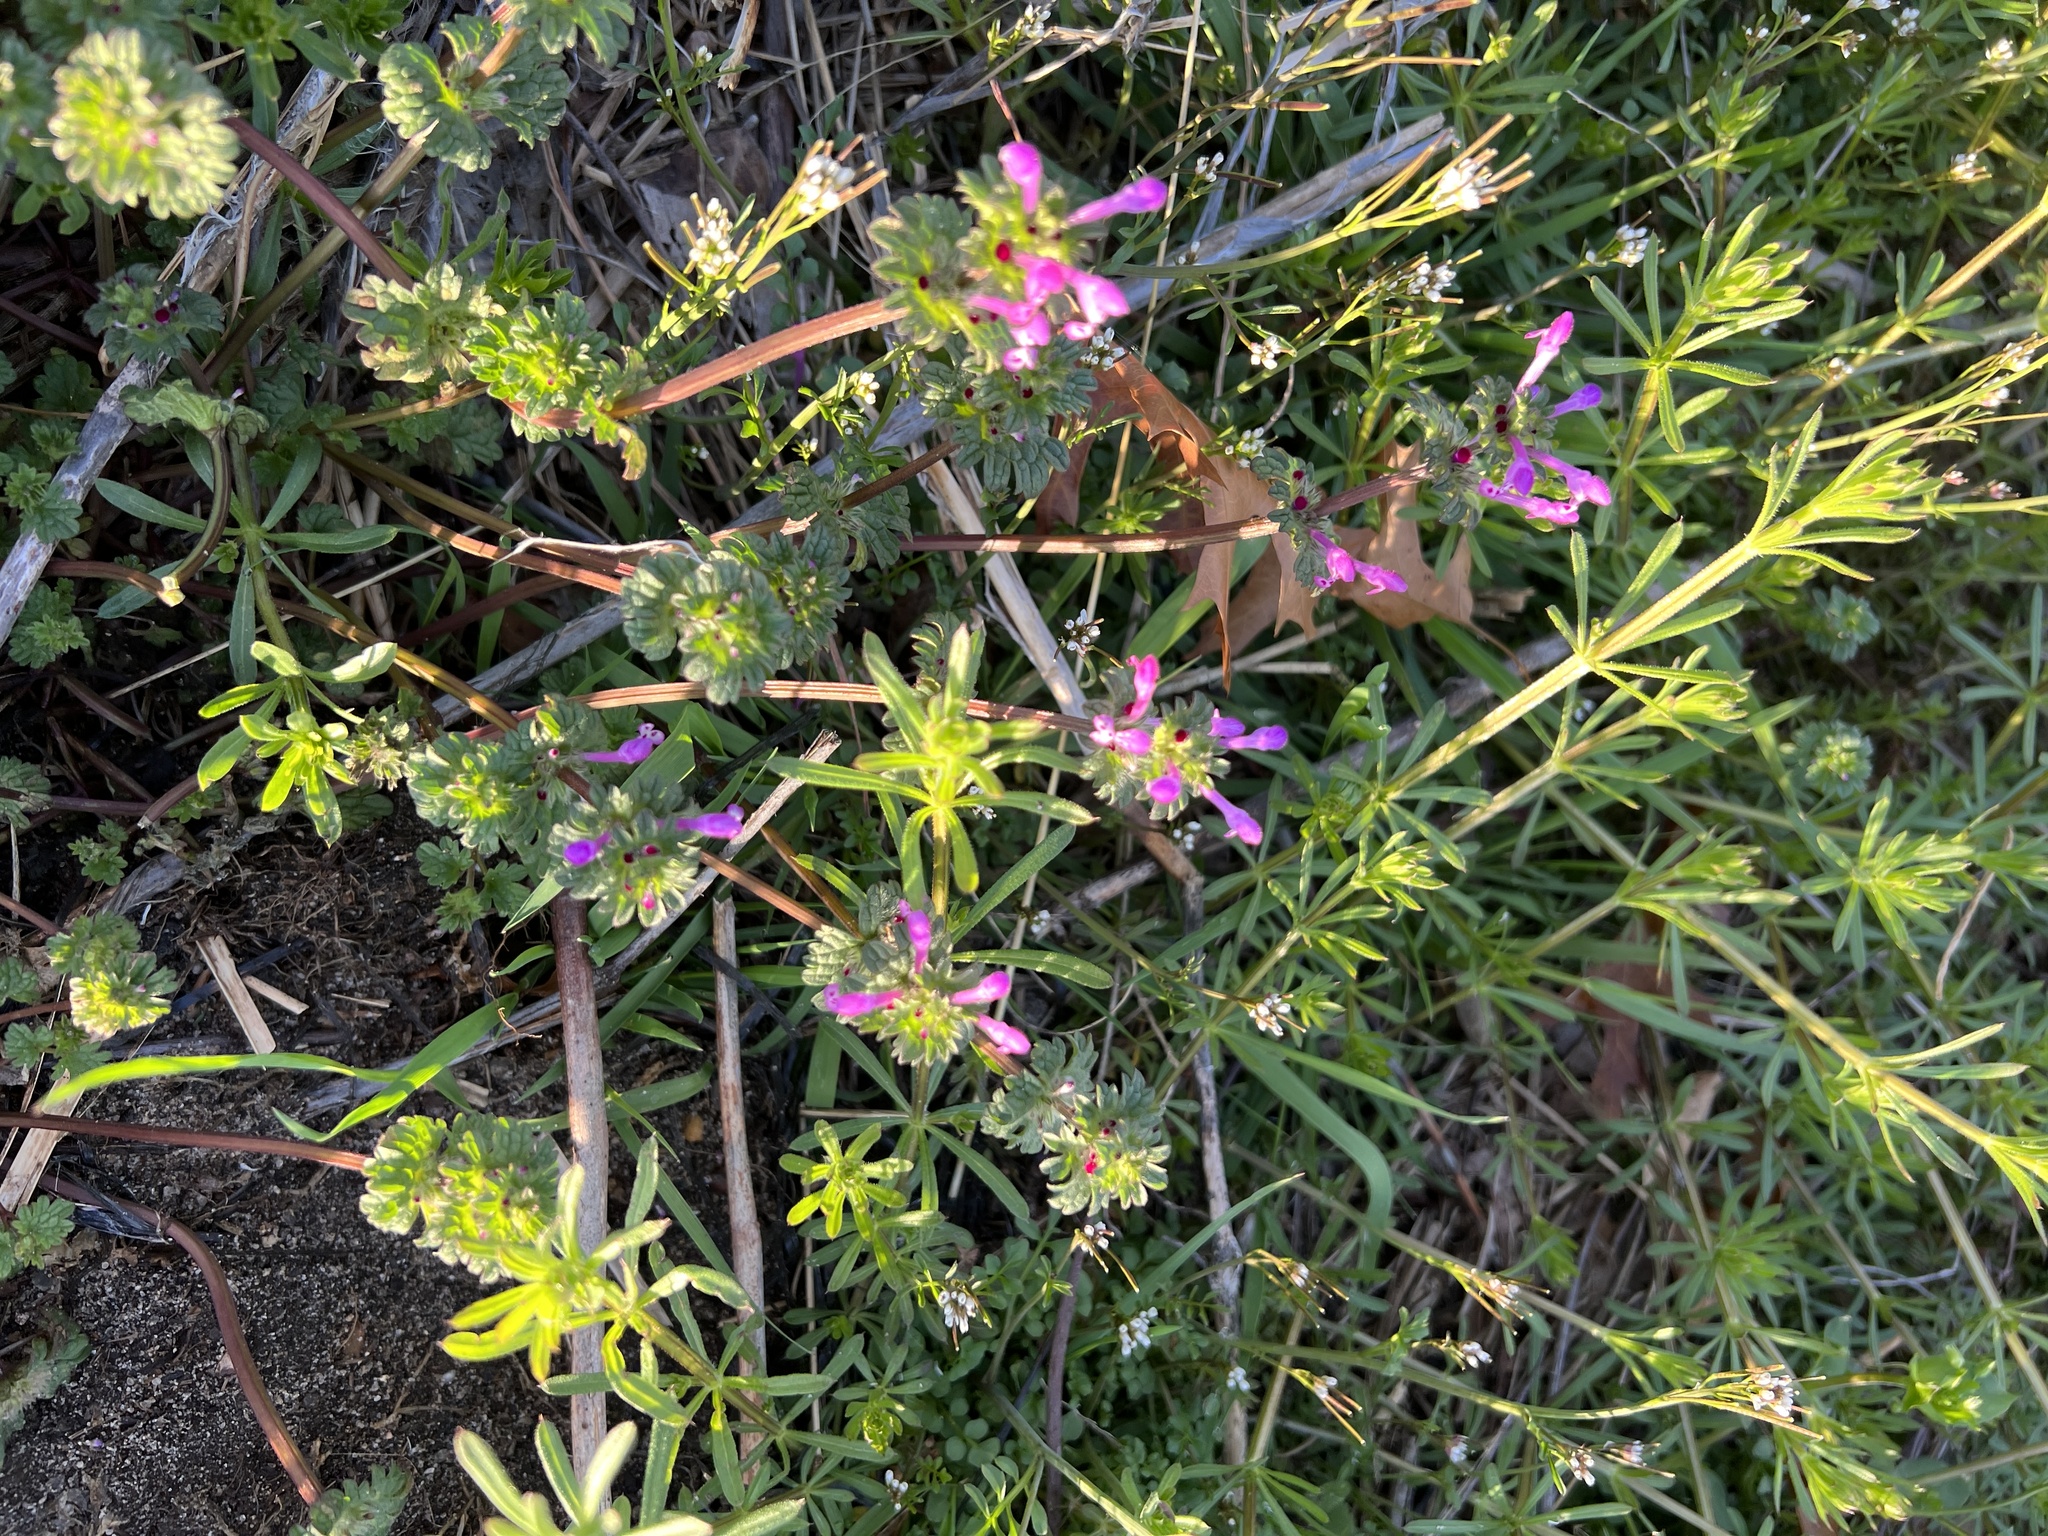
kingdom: Plantae
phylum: Tracheophyta
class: Magnoliopsida
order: Lamiales
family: Lamiaceae
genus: Lamium
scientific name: Lamium amplexicaule
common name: Henbit dead-nettle
